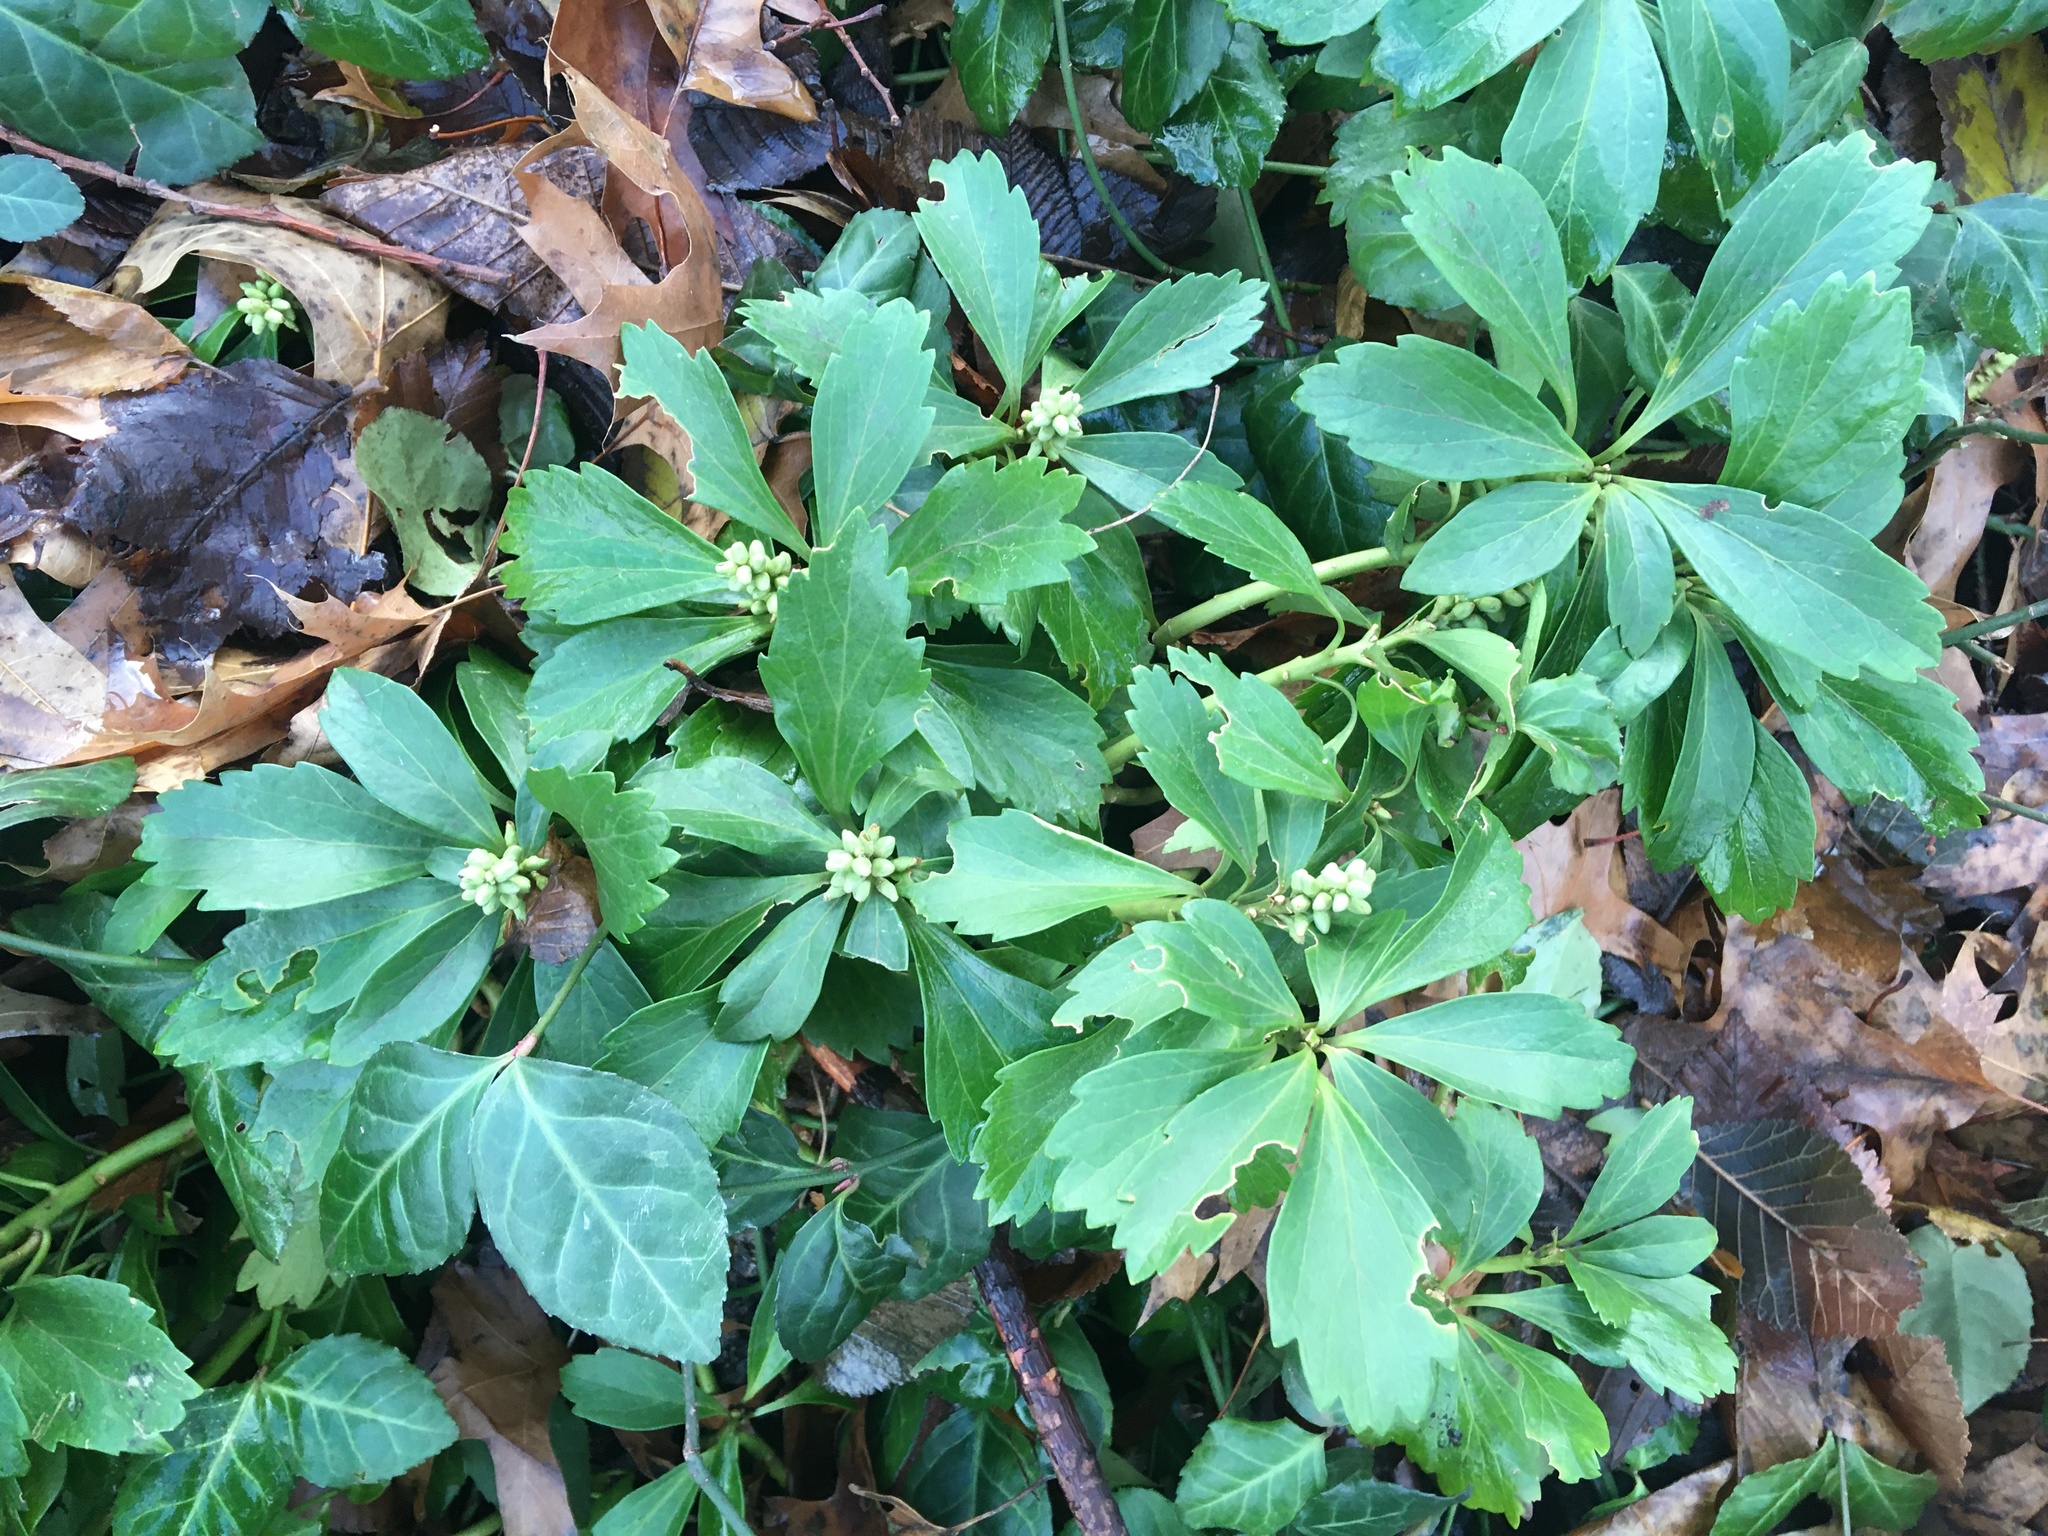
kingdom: Plantae
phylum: Tracheophyta
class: Magnoliopsida
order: Buxales
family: Buxaceae
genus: Pachysandra
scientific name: Pachysandra terminalis
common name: Japanese pachysandra
